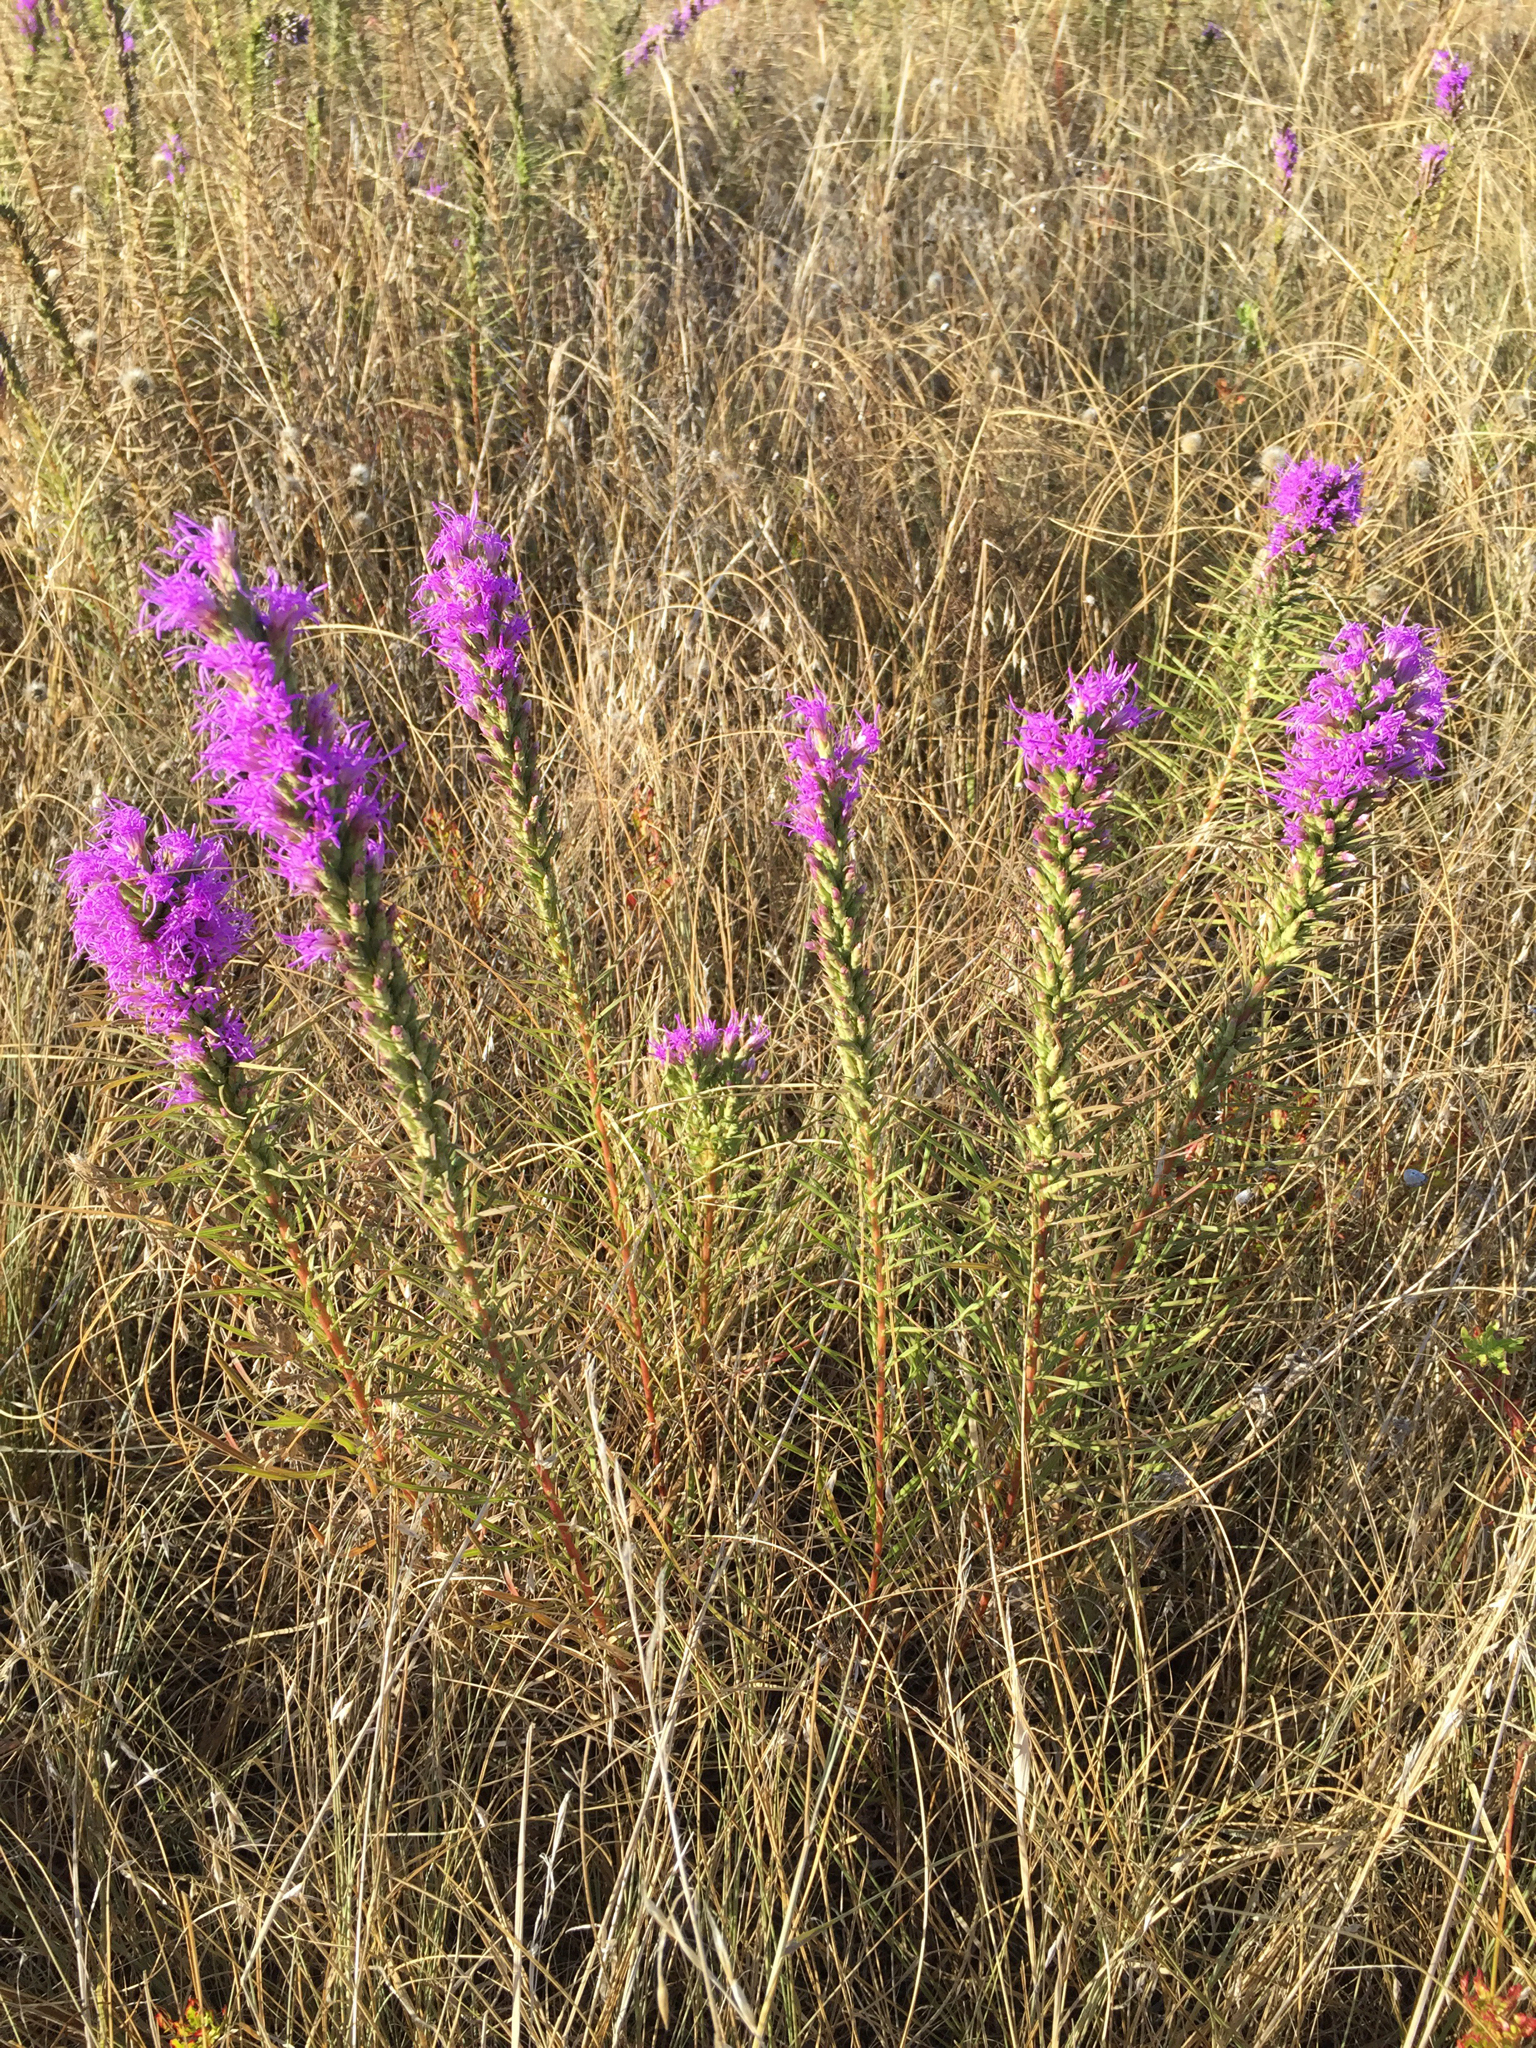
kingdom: Plantae
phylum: Tracheophyta
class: Magnoliopsida
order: Asterales
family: Asteraceae
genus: Liatris
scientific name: Liatris punctata
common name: Dotted gayfeather
